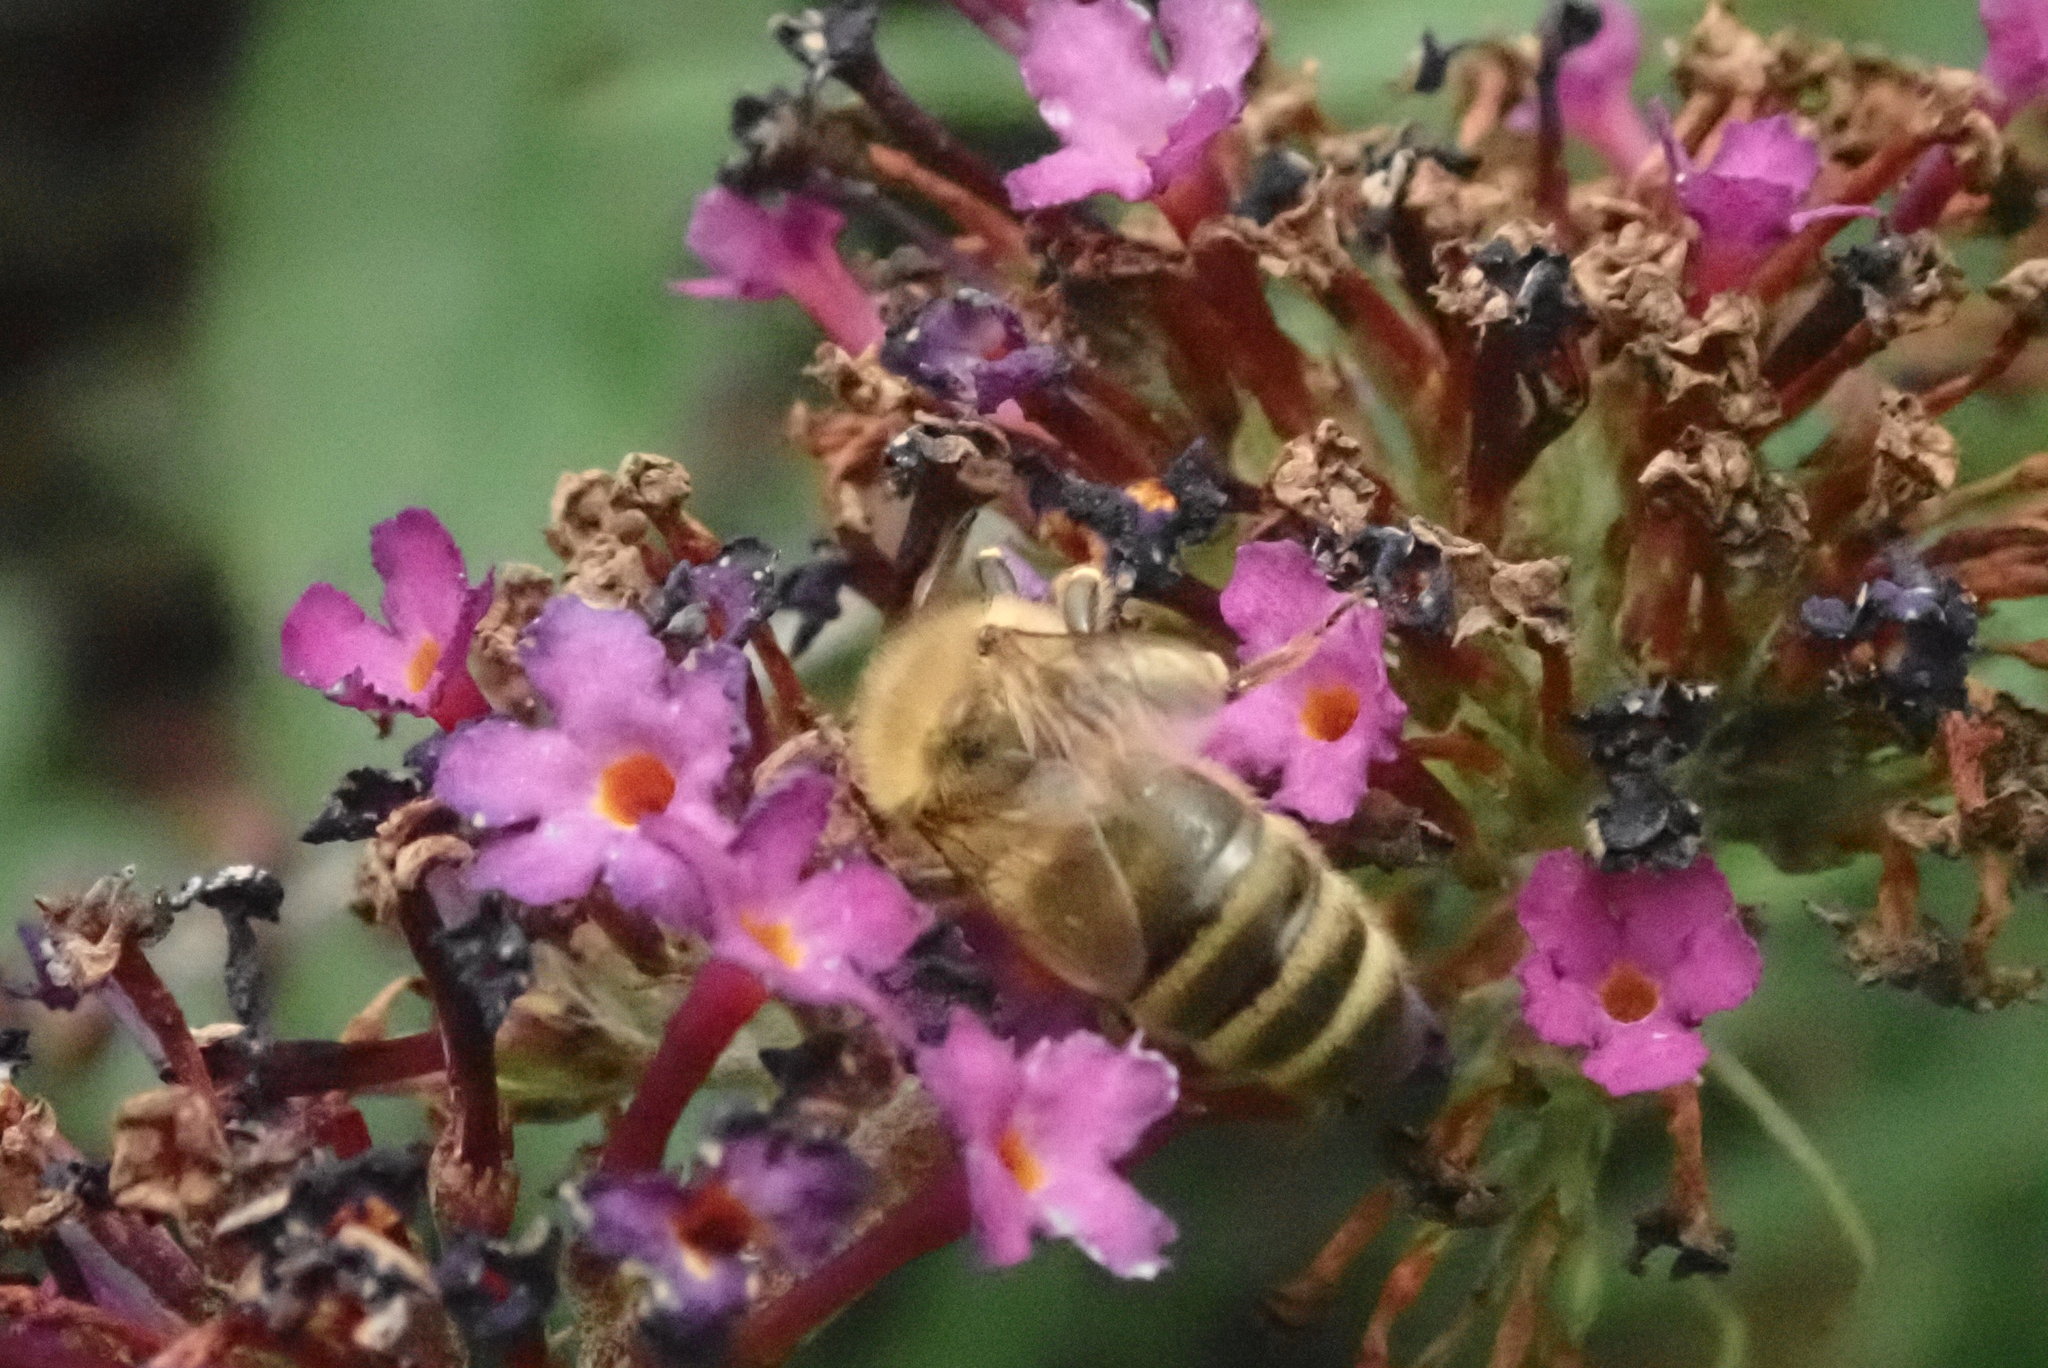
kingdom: Animalia
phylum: Arthropoda
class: Insecta
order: Hymenoptera
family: Apidae
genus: Apis
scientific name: Apis mellifera
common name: Honey bee
